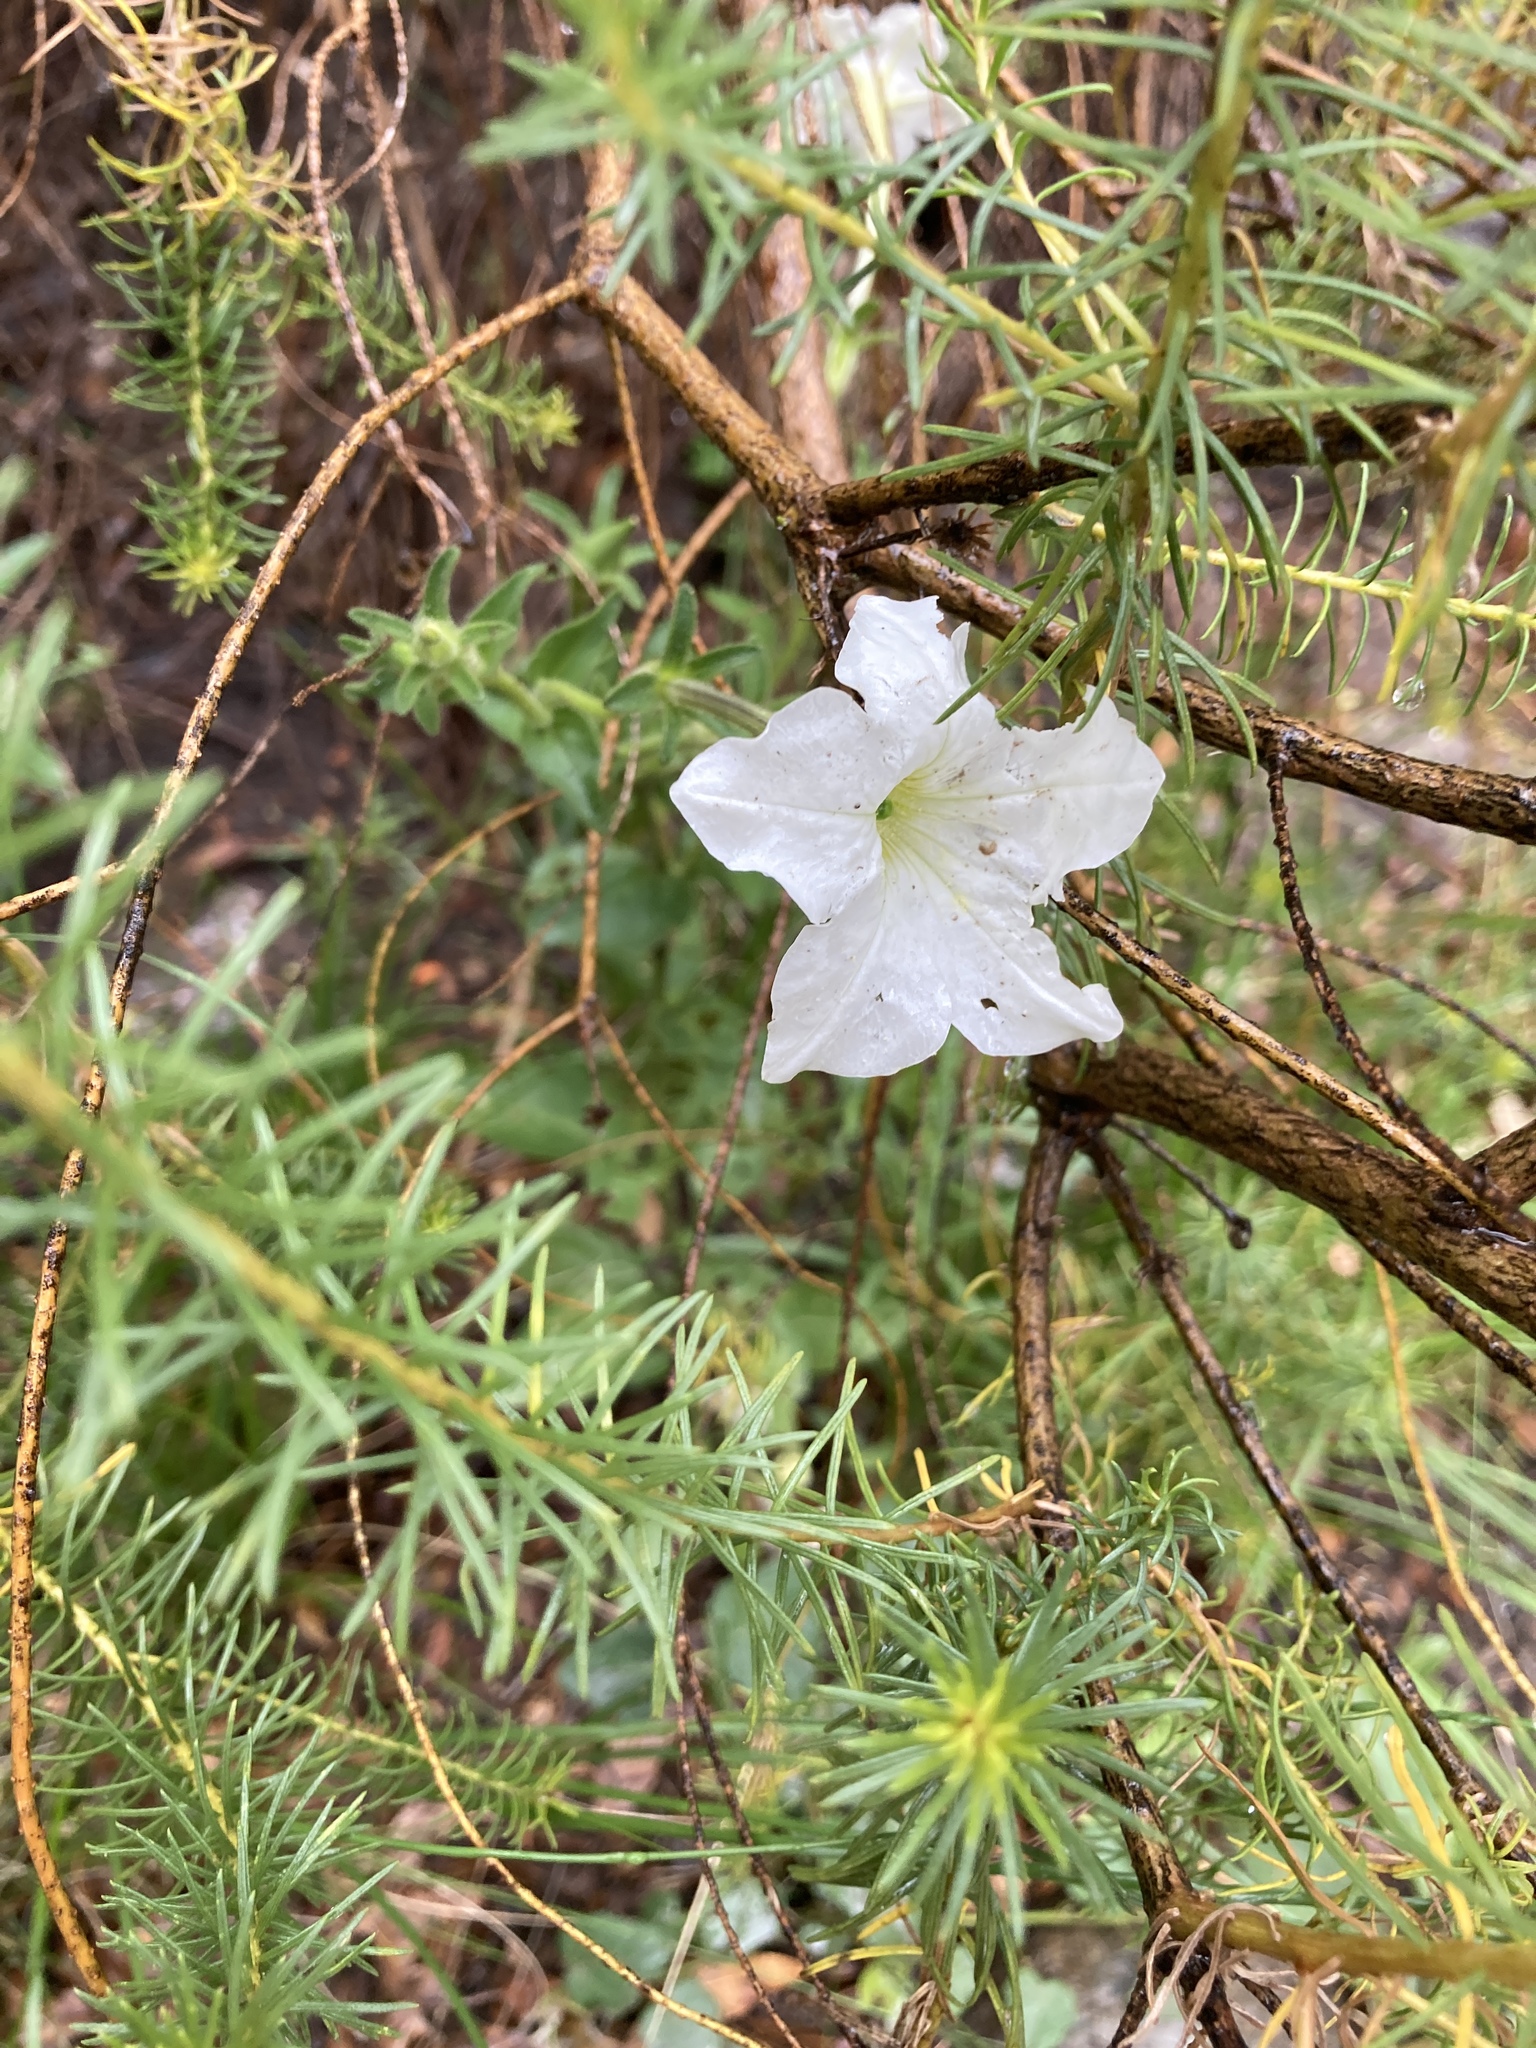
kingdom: Plantae
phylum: Tracheophyta
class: Magnoliopsida
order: Solanales
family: Solanaceae
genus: Petunia
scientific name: Petunia axillaris
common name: Large white petunia
